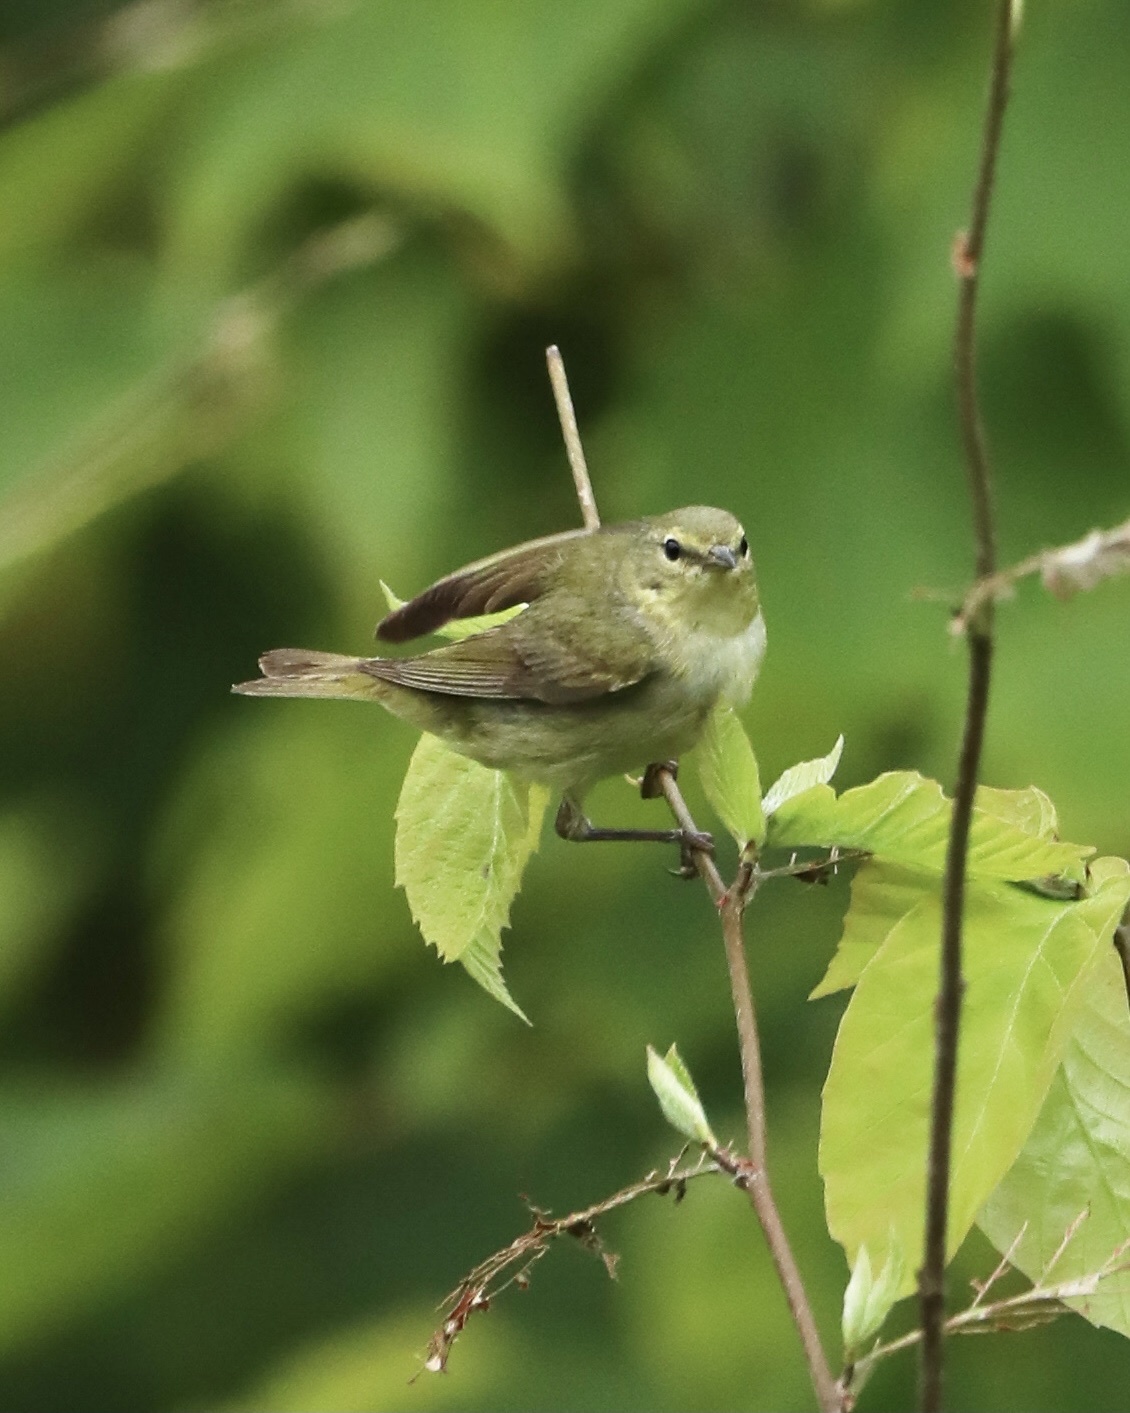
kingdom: Animalia
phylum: Chordata
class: Aves
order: Passeriformes
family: Parulidae
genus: Leiothlypis
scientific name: Leiothlypis peregrina
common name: Tennessee warbler
